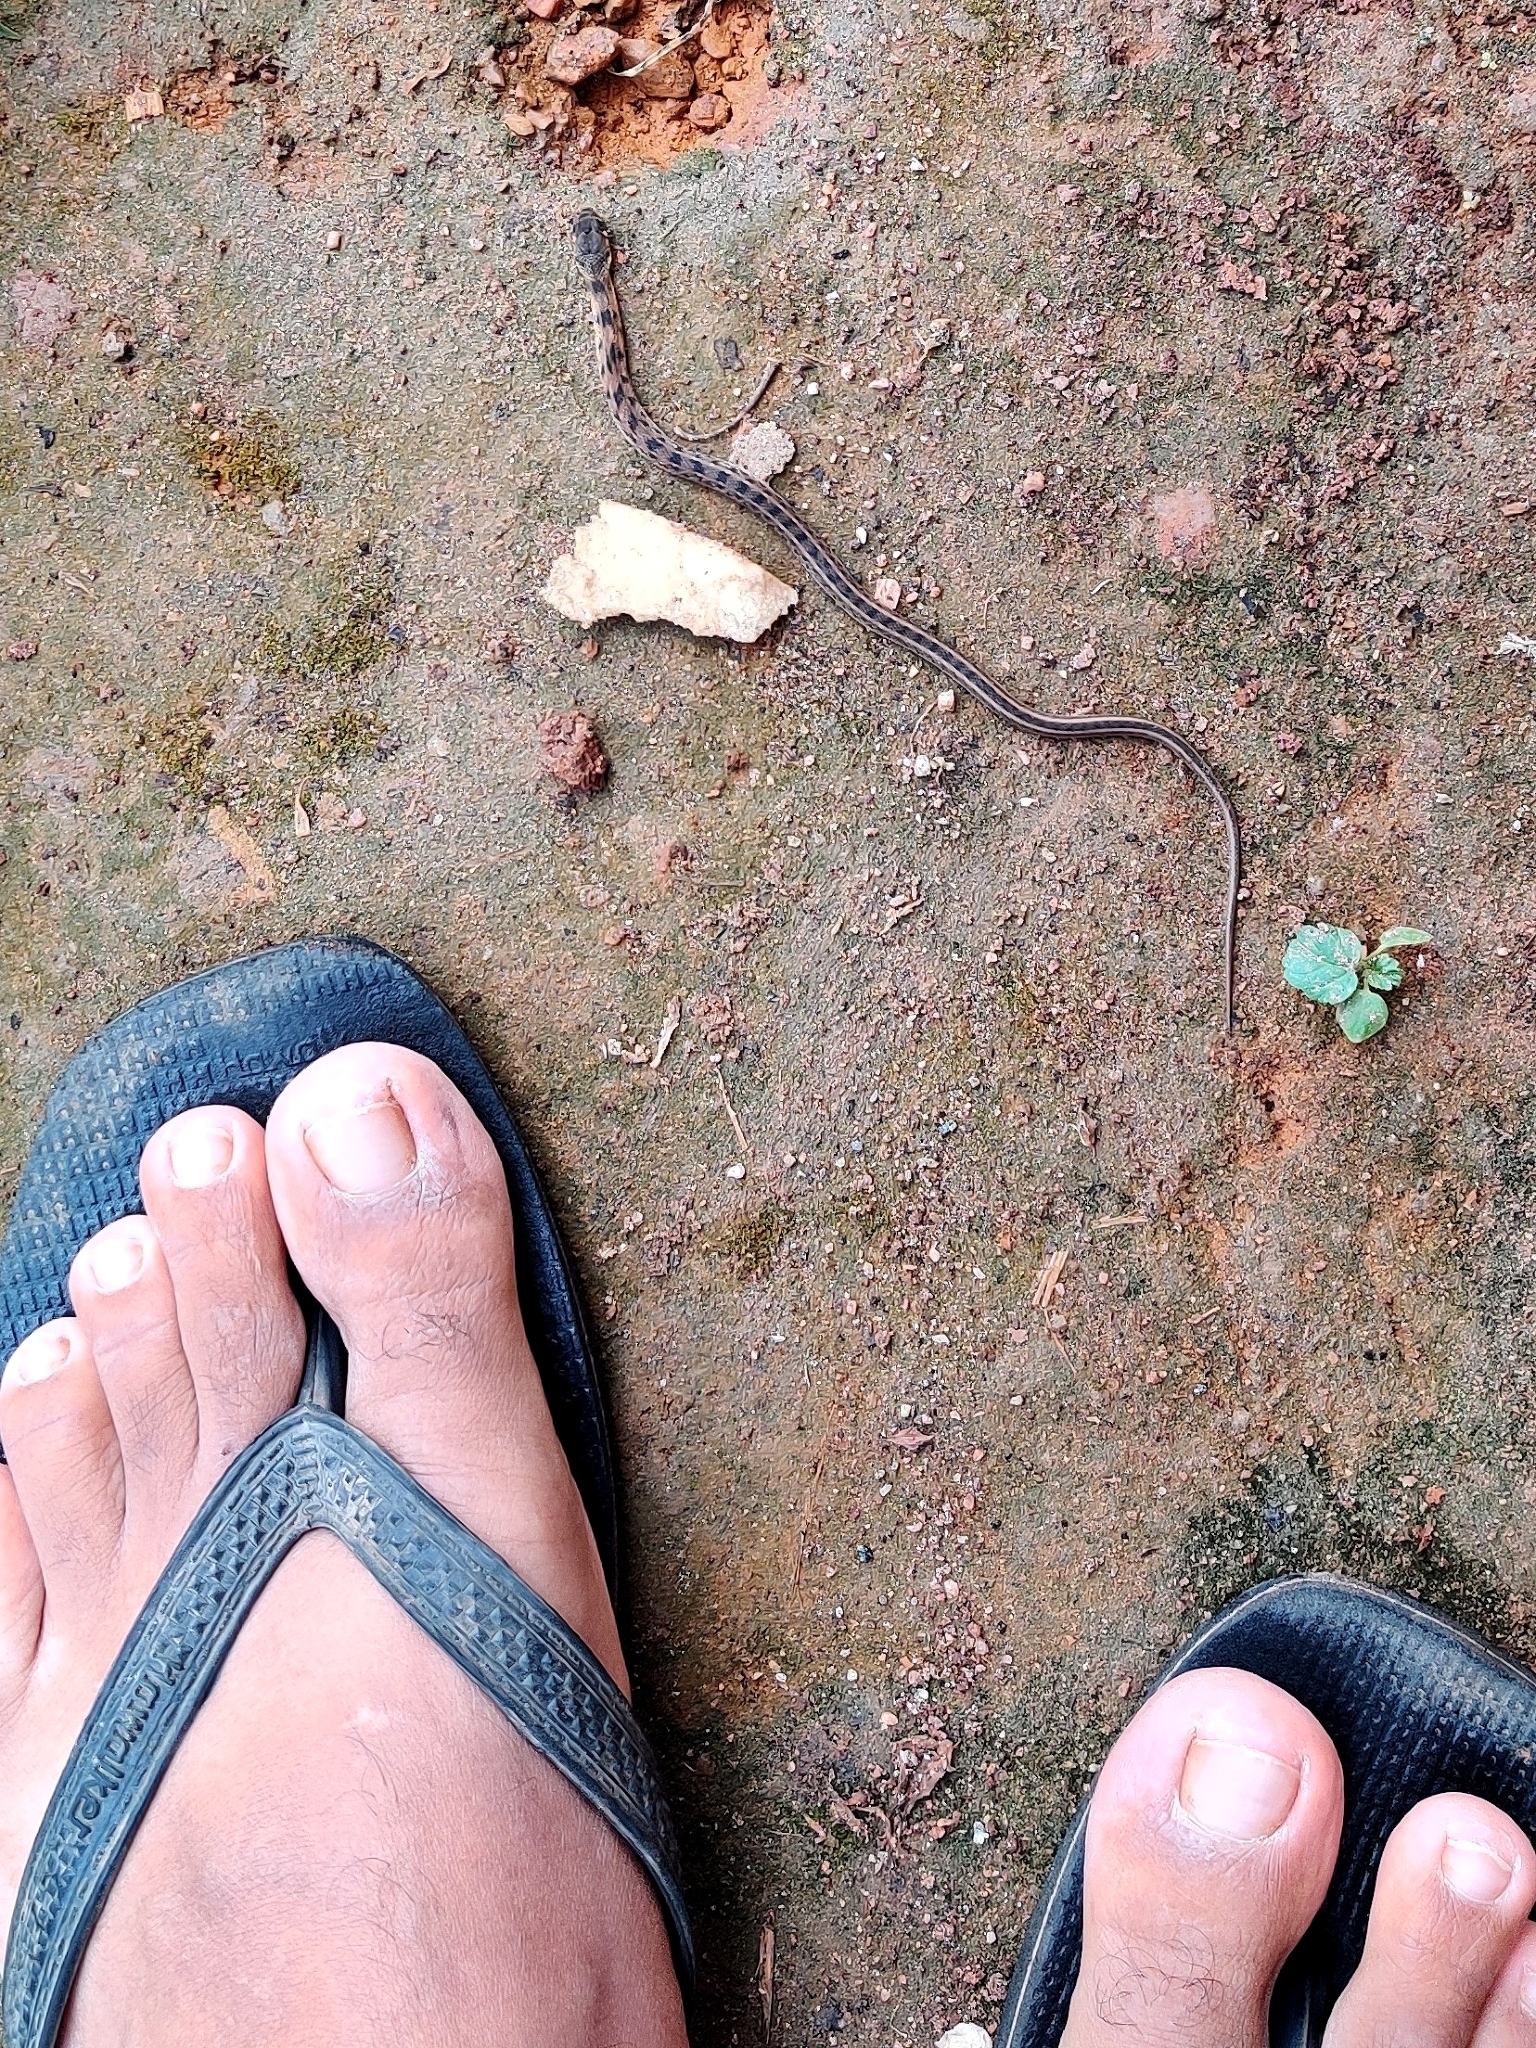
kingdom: Animalia
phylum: Chordata
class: Squamata
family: Colubridae
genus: Amphiesma
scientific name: Amphiesma stolatum
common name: Buff striped keelback
